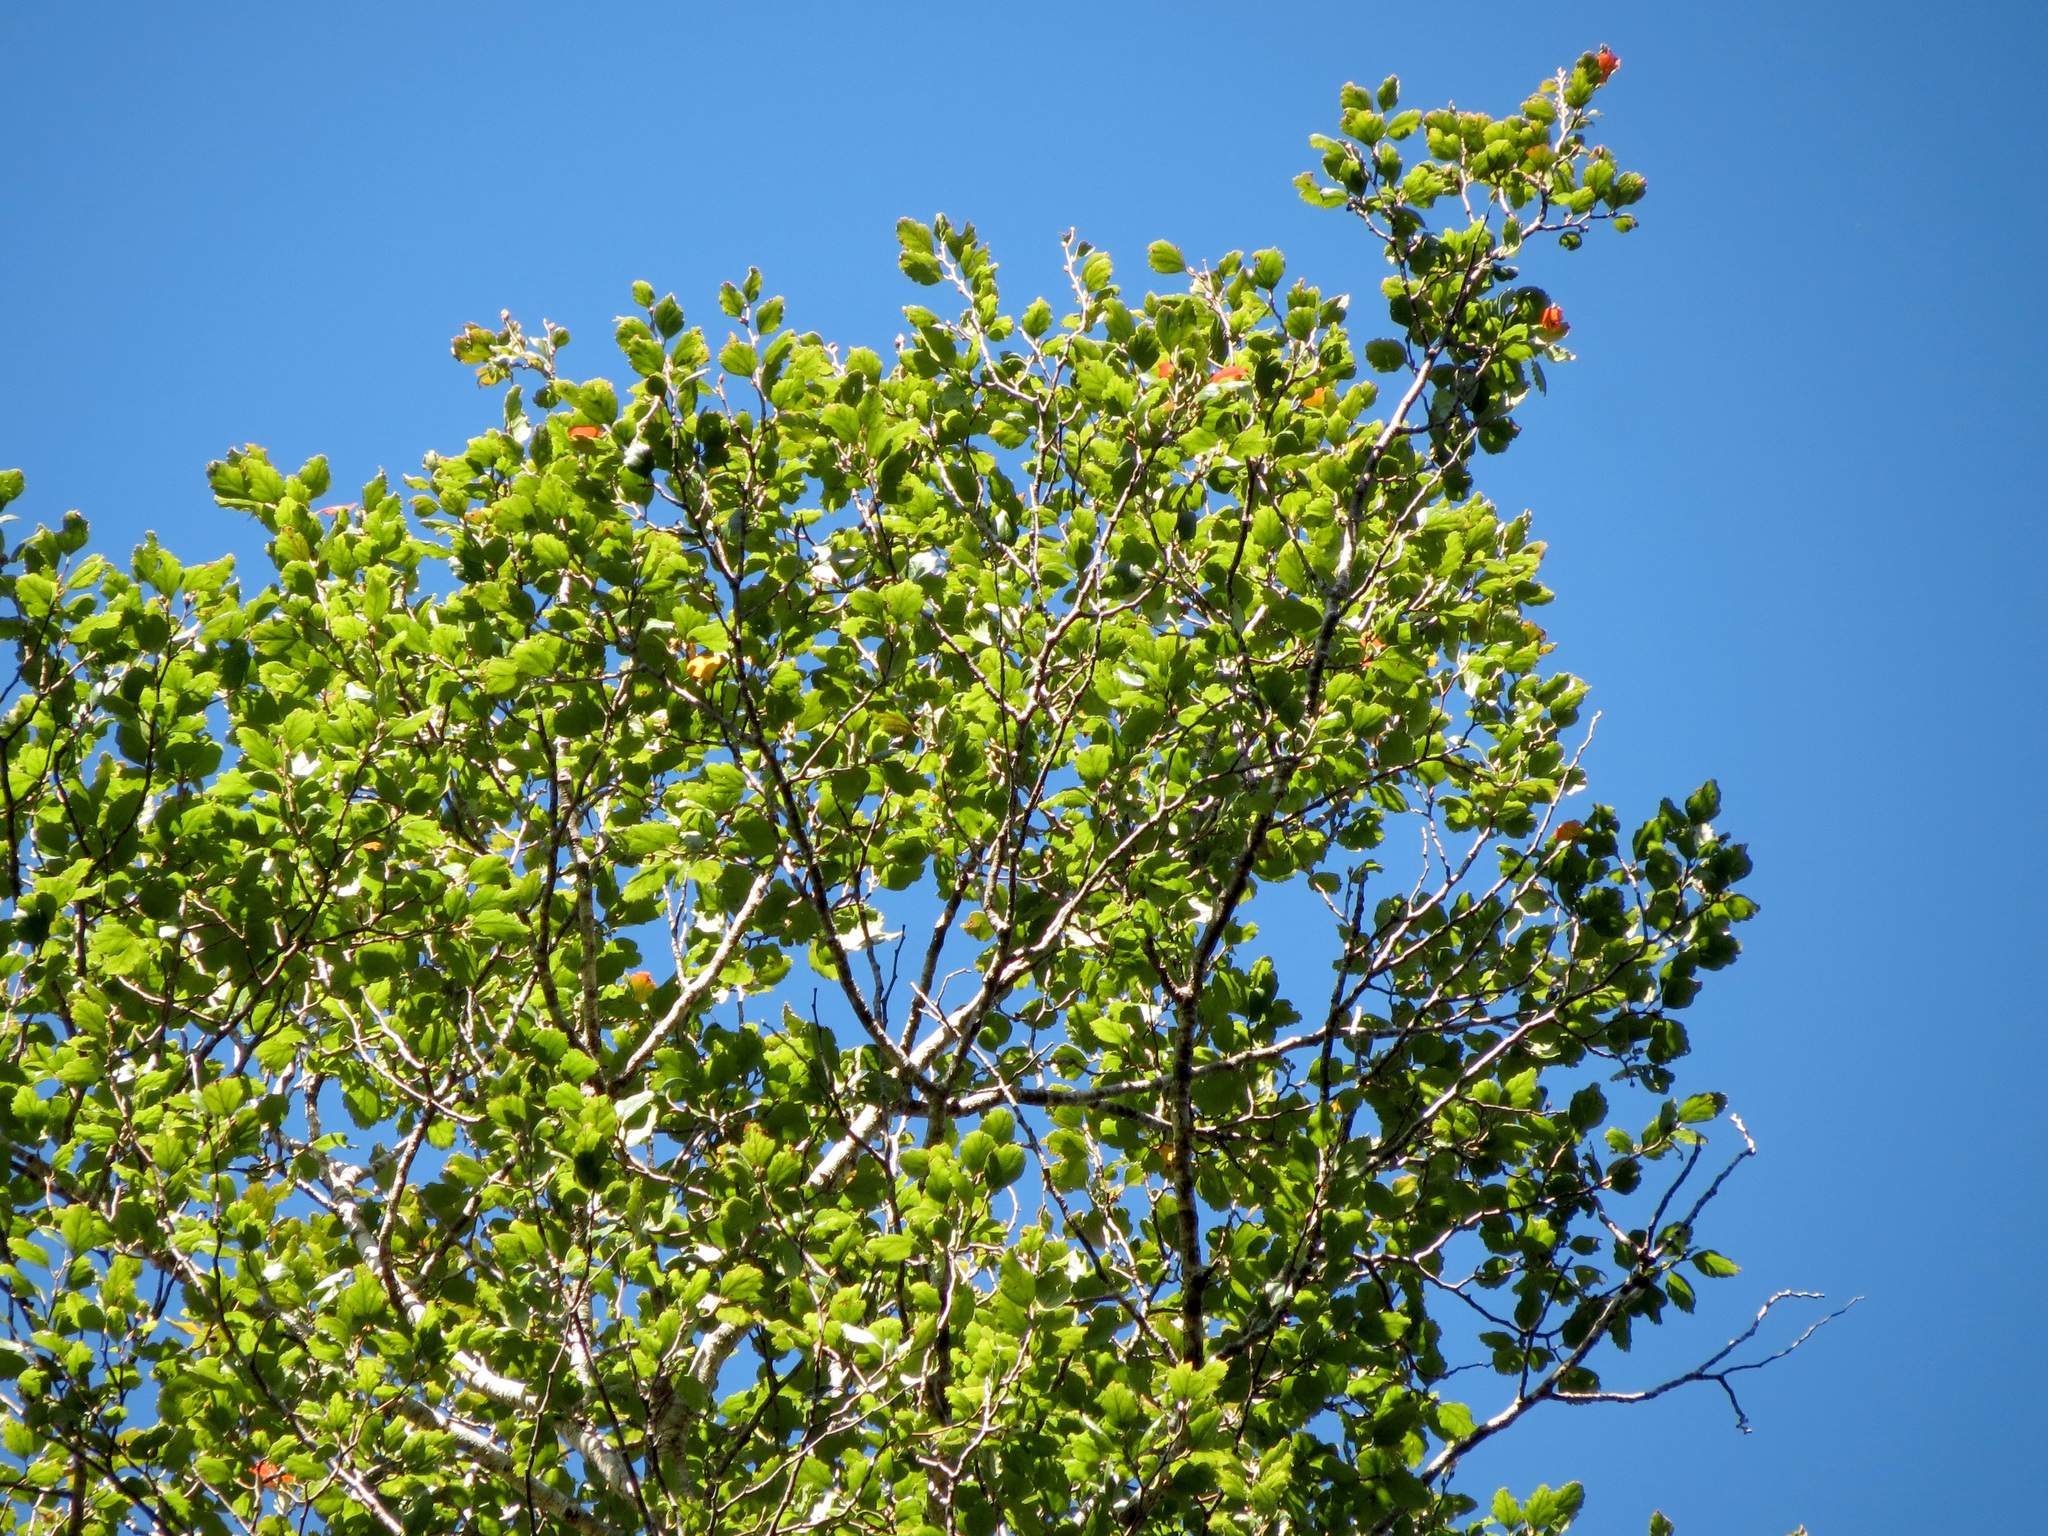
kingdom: Plantae
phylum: Tracheophyta
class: Magnoliopsida
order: Fagales
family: Nothofagaceae
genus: Nothofagus
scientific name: Nothofagus fusca
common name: Red beech
